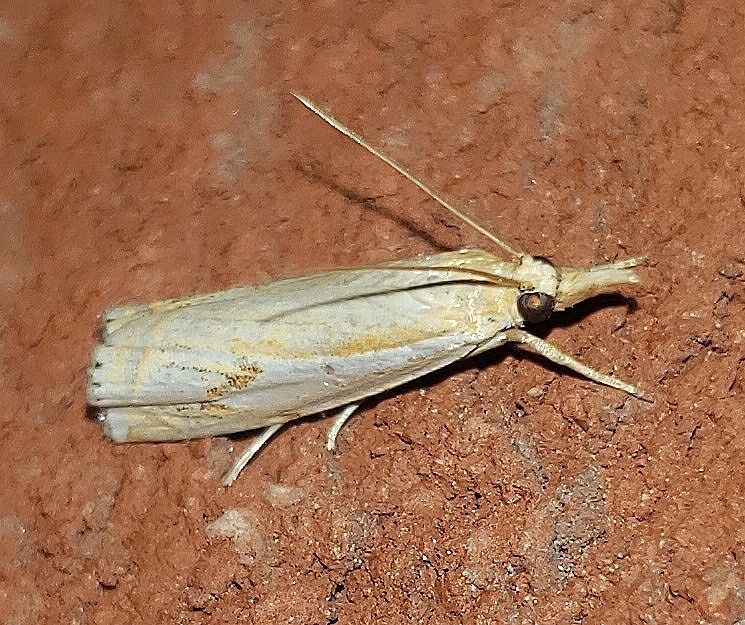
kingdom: Animalia
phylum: Arthropoda
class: Insecta
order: Lepidoptera
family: Crambidae
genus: Crambus
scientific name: Crambus agitatellus
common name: Double-banded grass-veneer
